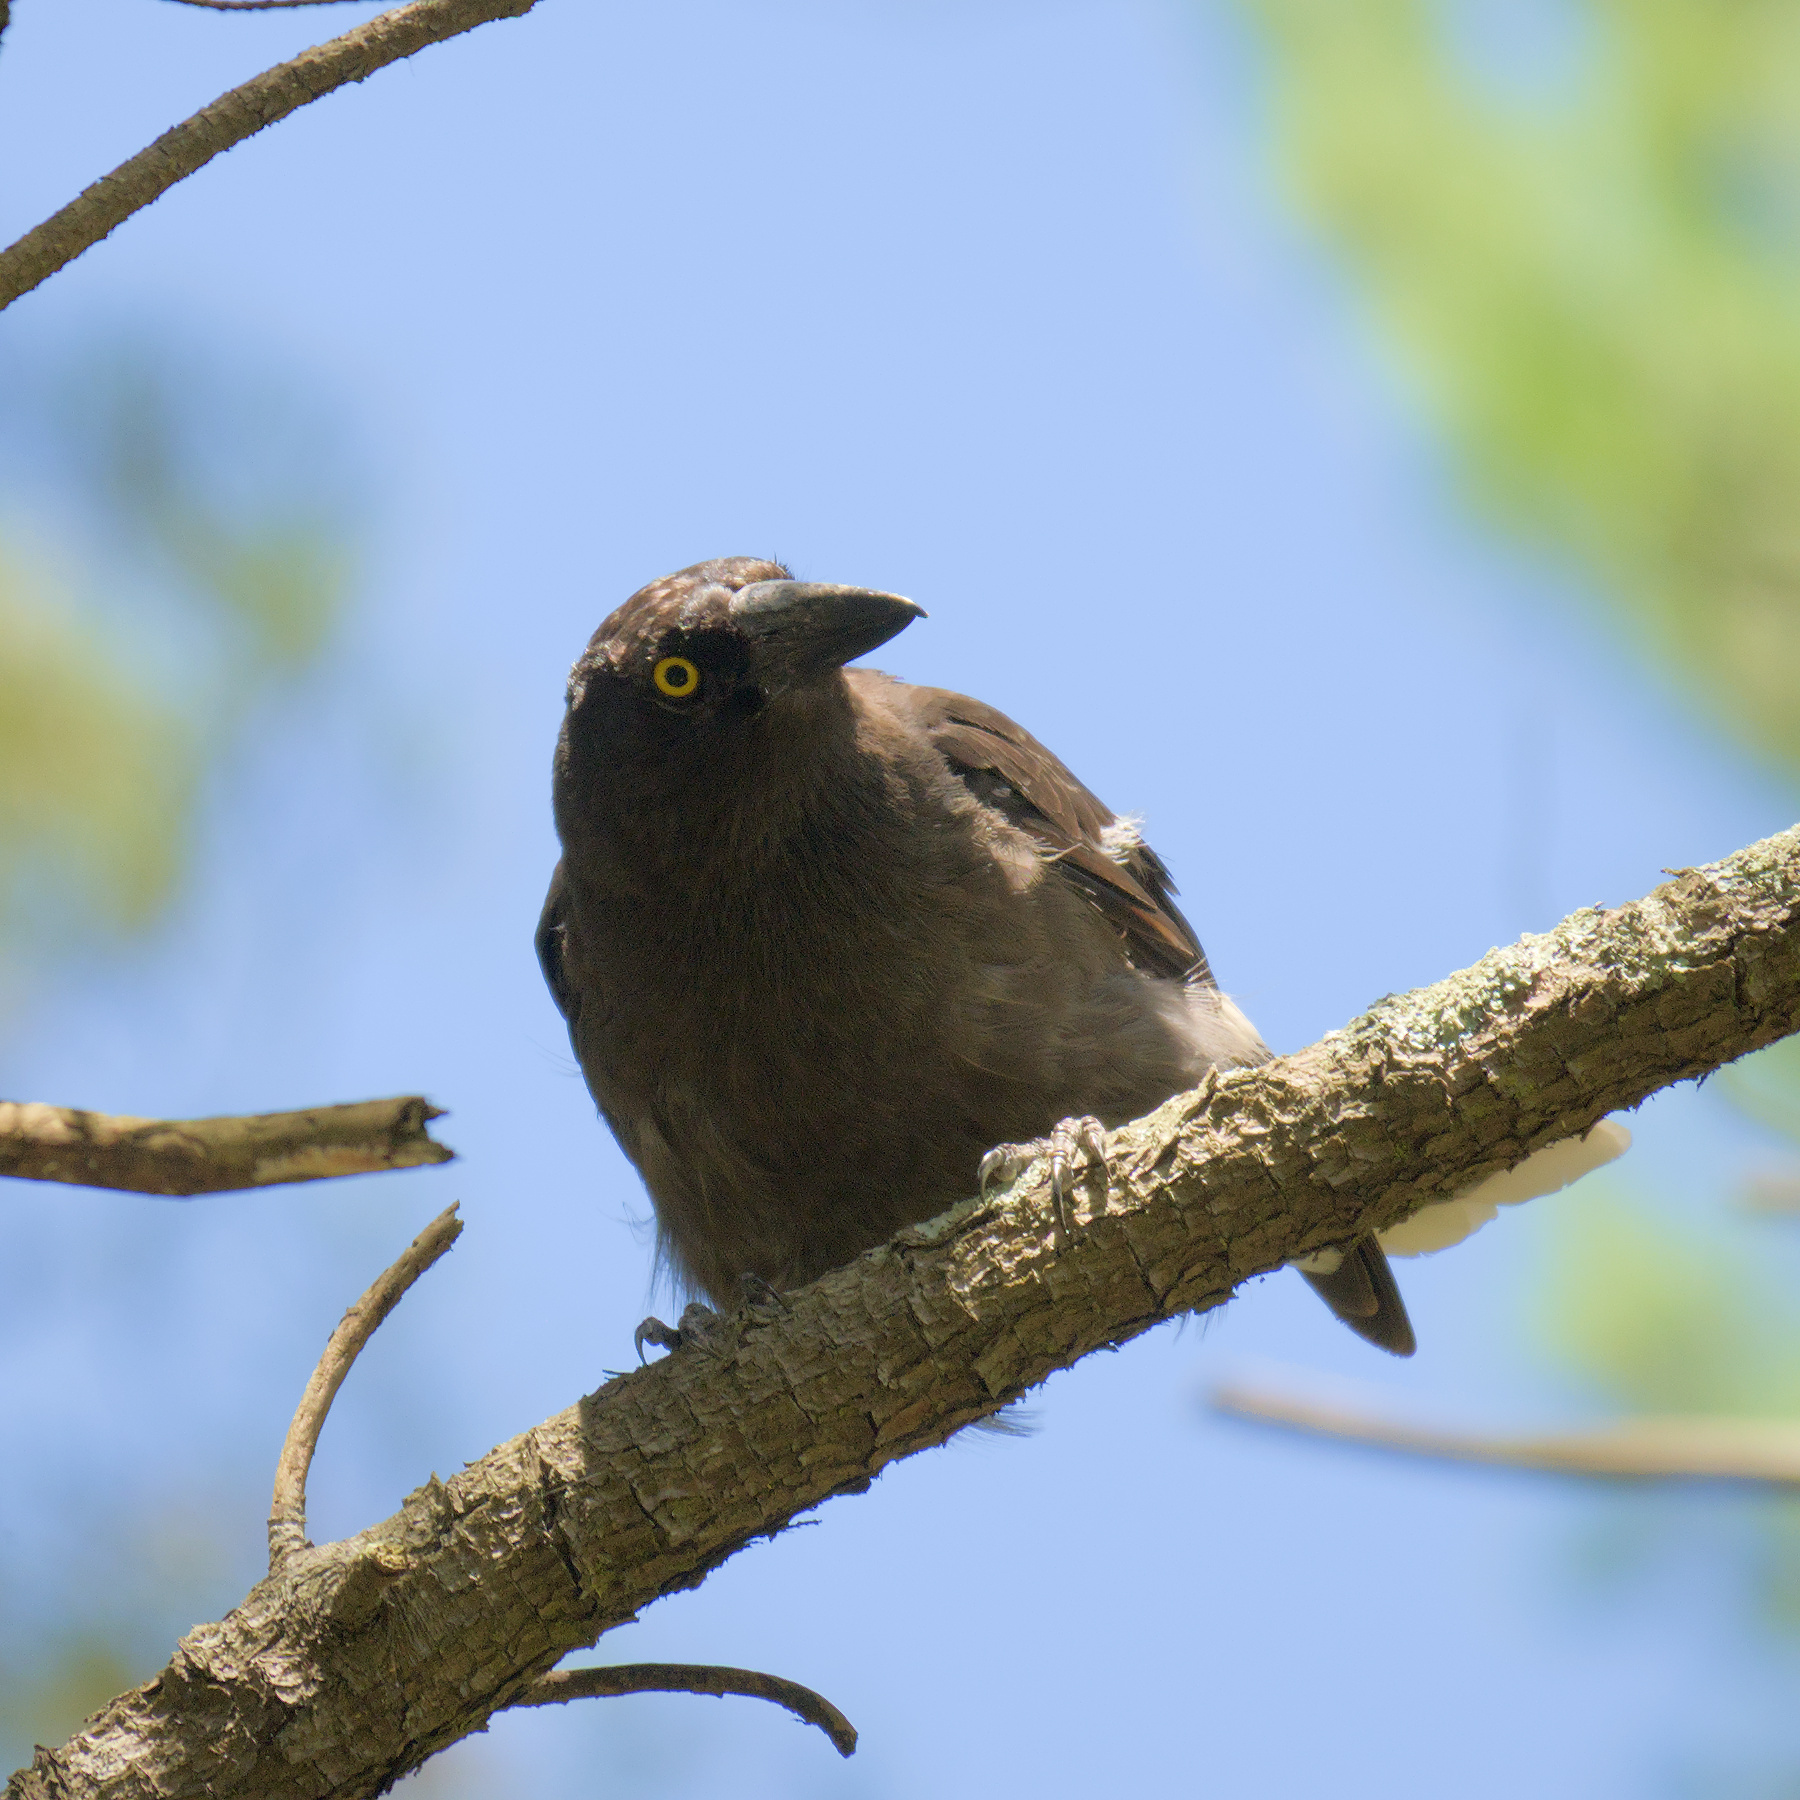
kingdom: Animalia
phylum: Chordata
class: Aves
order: Passeriformes
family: Cracticidae
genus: Strepera
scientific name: Strepera graculina
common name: Pied currawong
